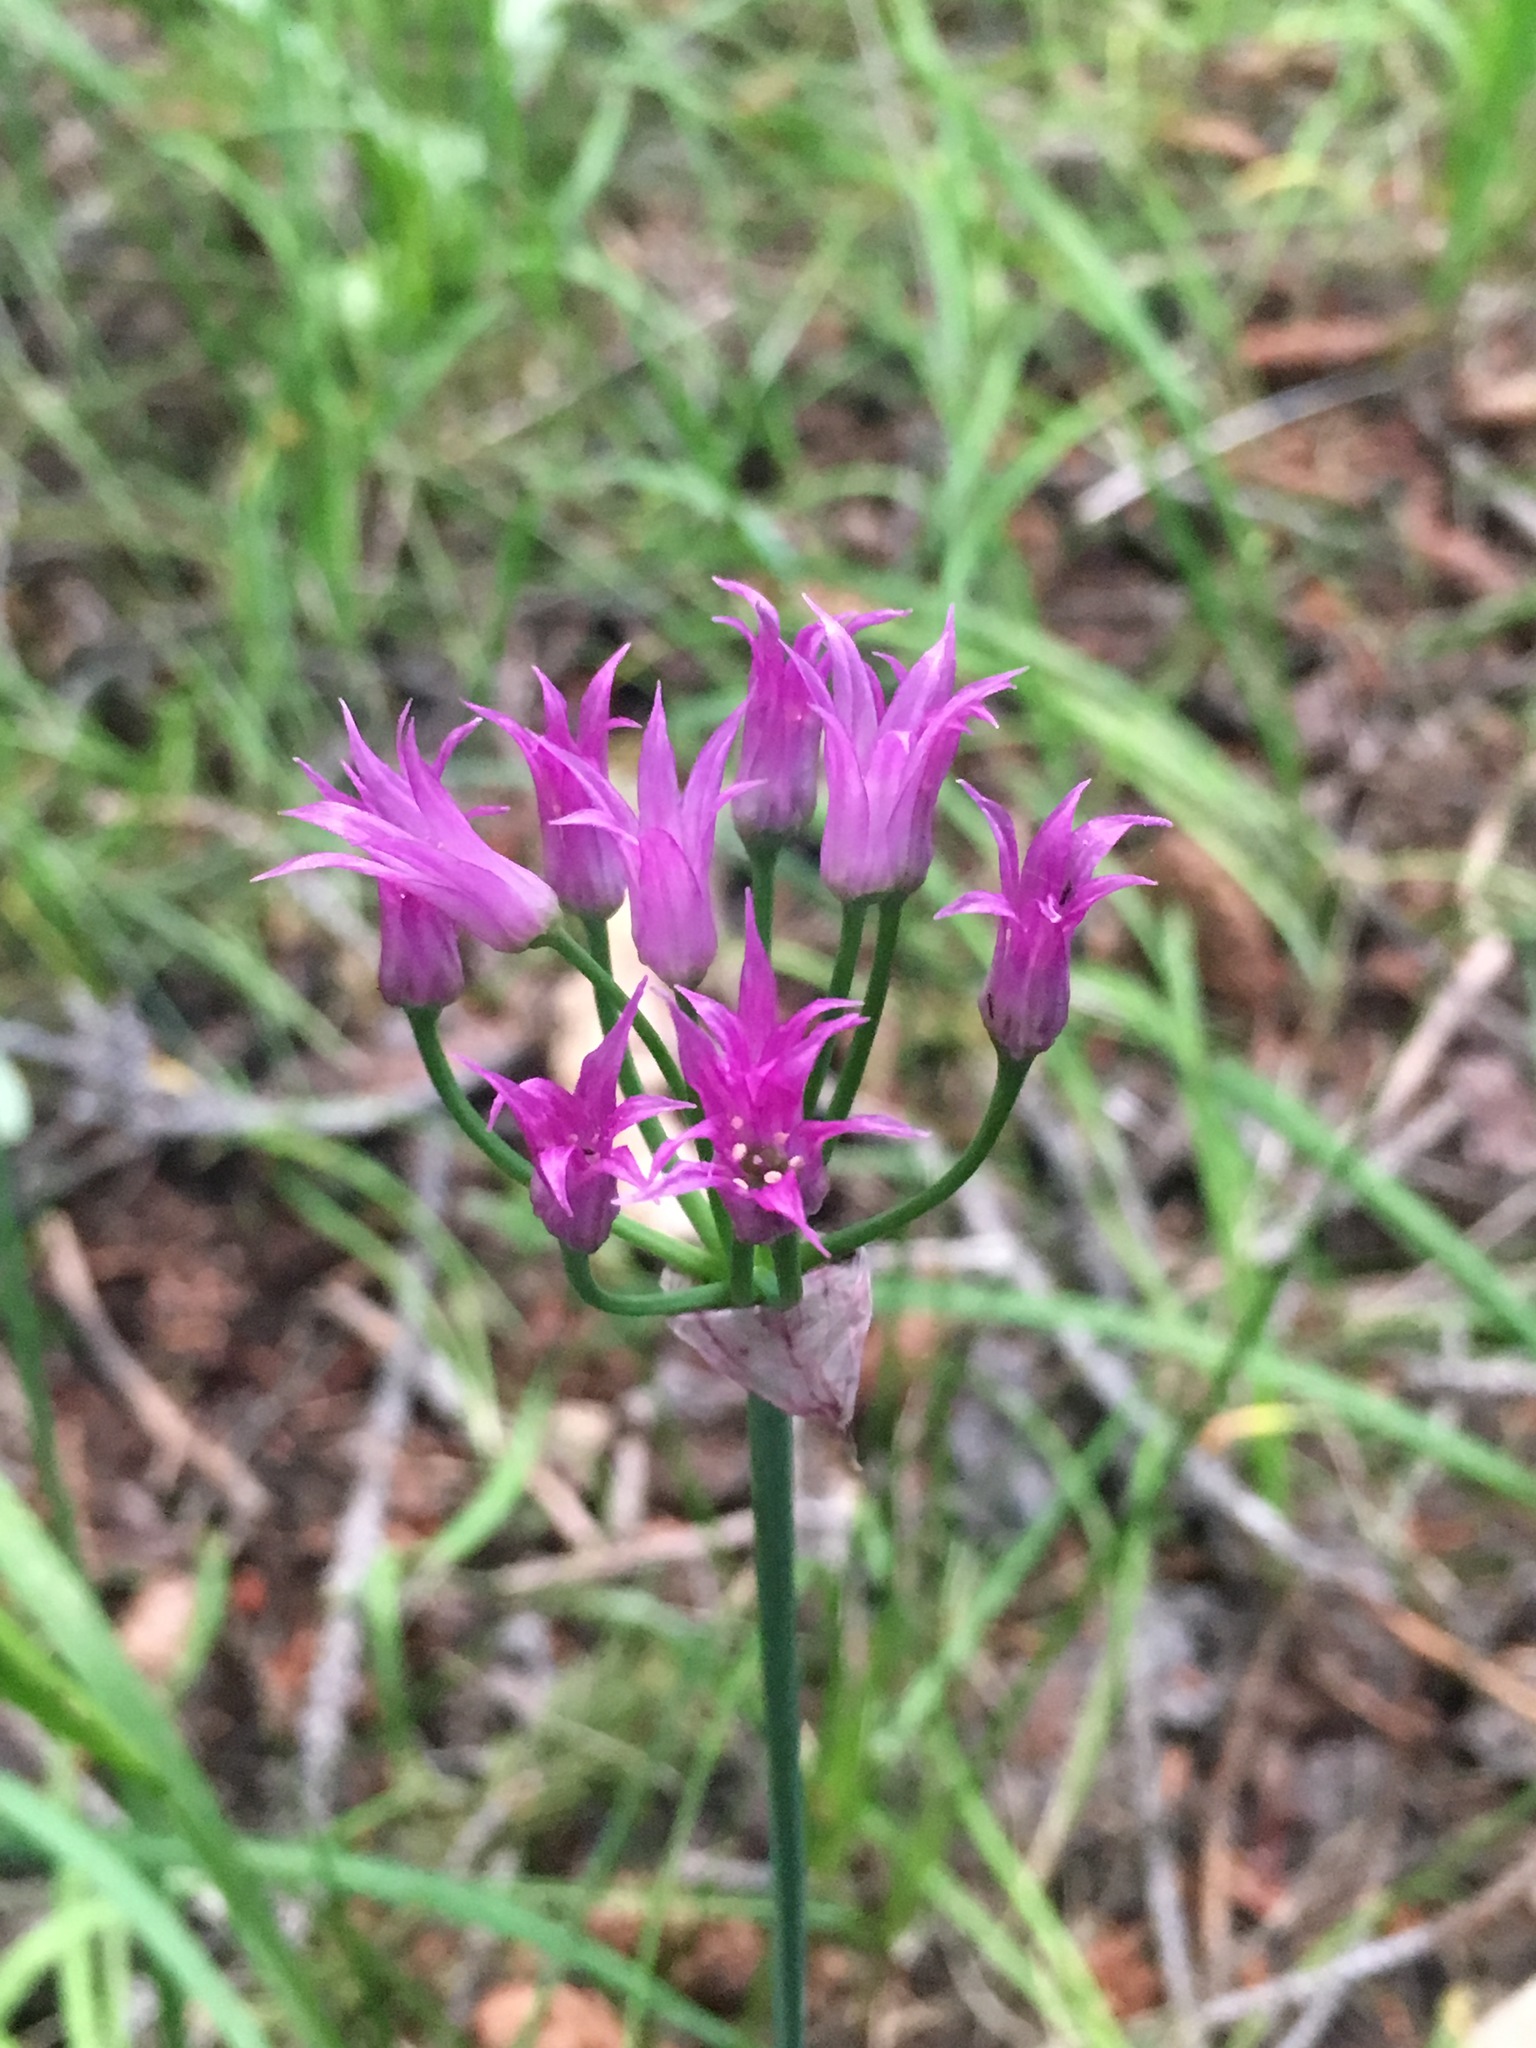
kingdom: Plantae
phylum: Tracheophyta
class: Liliopsida
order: Asparagales
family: Amaryllidaceae
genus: Allium
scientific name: Allium brevistylum
